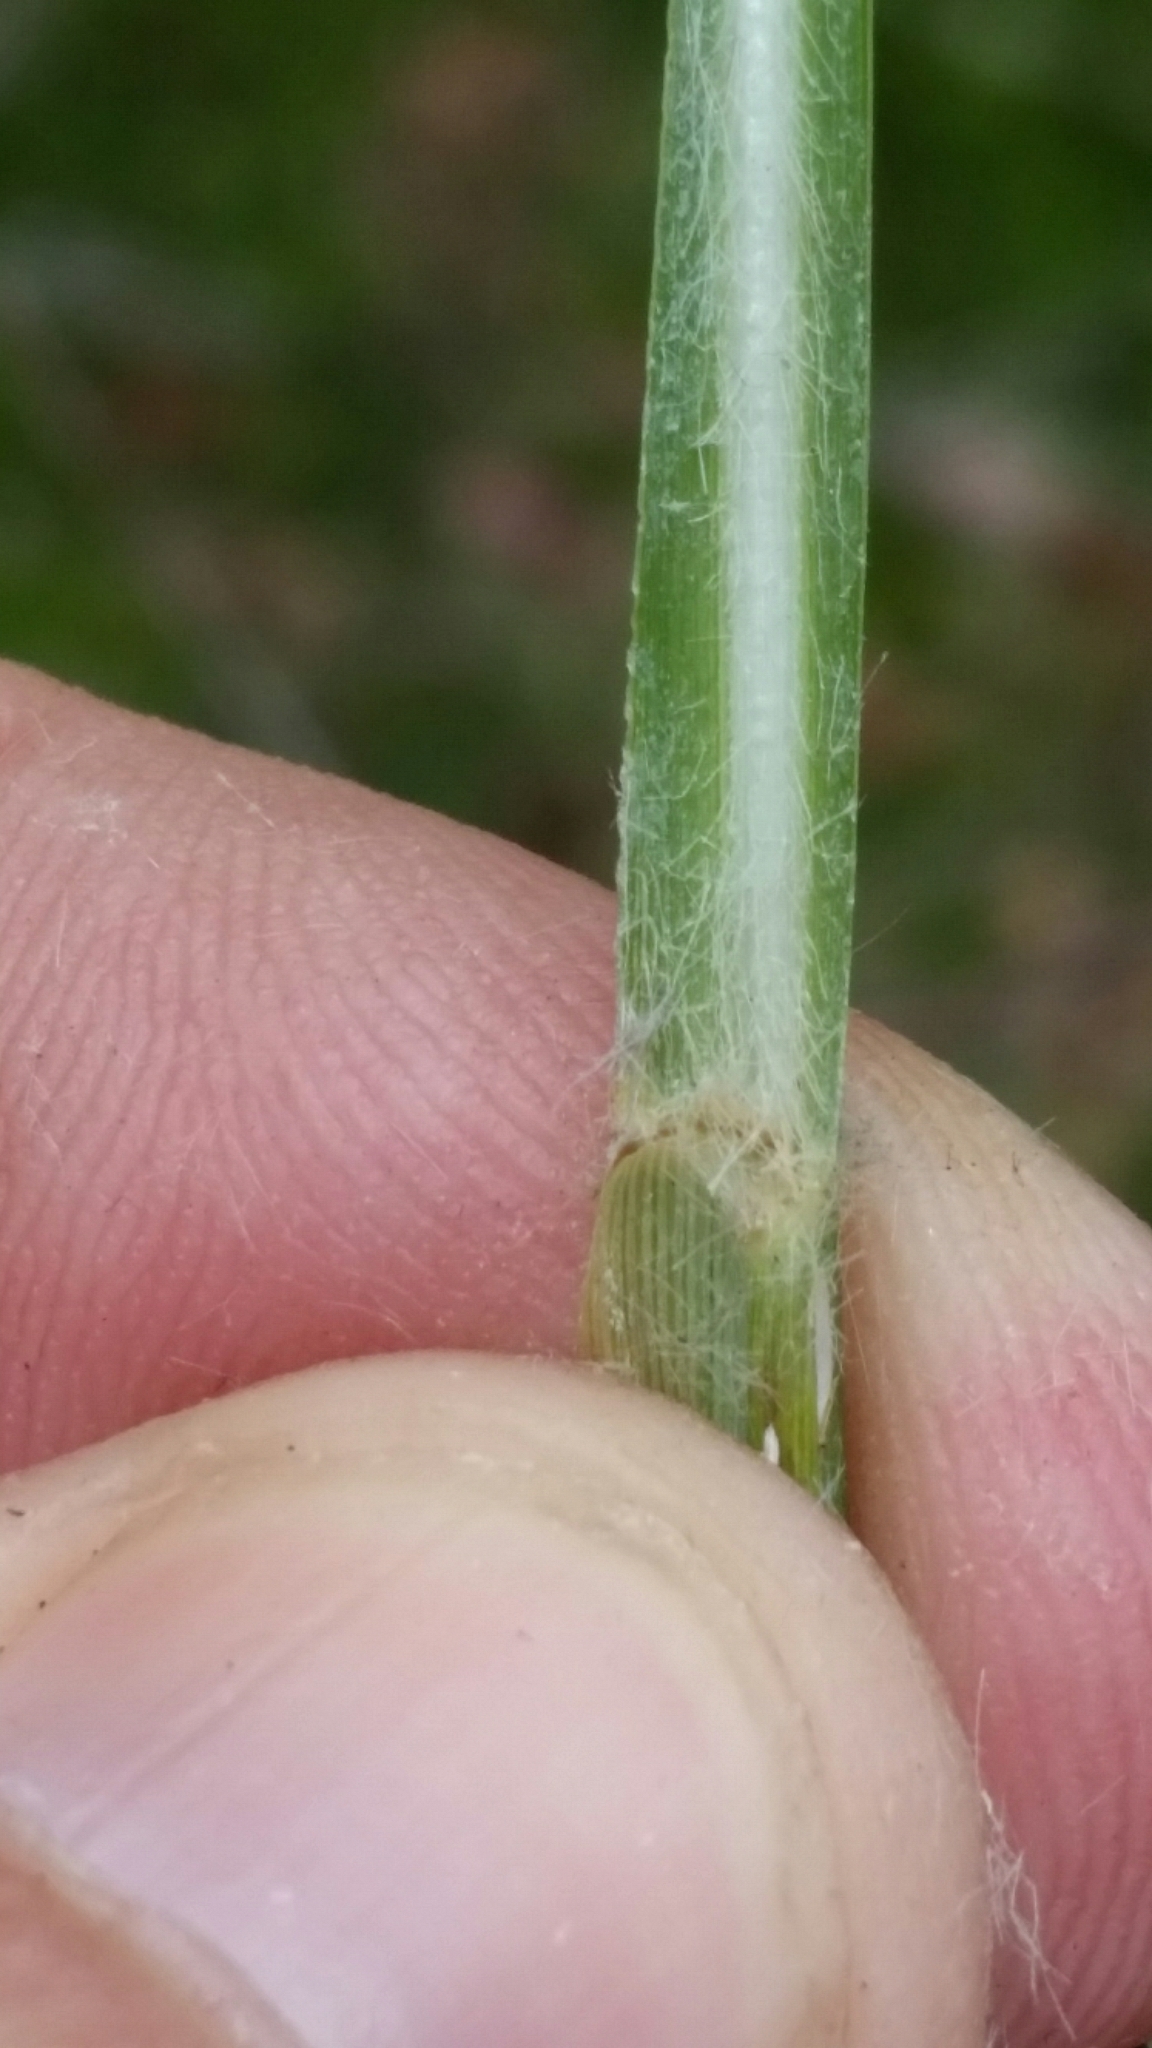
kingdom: Plantae
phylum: Tracheophyta
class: Liliopsida
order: Poales
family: Poaceae
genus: Coleataenia
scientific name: Coleataenia rigidula
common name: Redtop panicgrass
